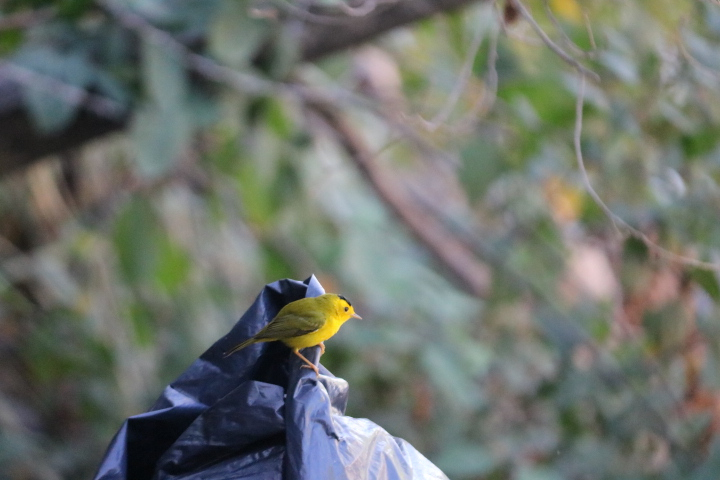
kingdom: Animalia
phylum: Chordata
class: Aves
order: Passeriformes
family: Parulidae
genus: Cardellina
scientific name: Cardellina pusilla
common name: Wilson's warbler
